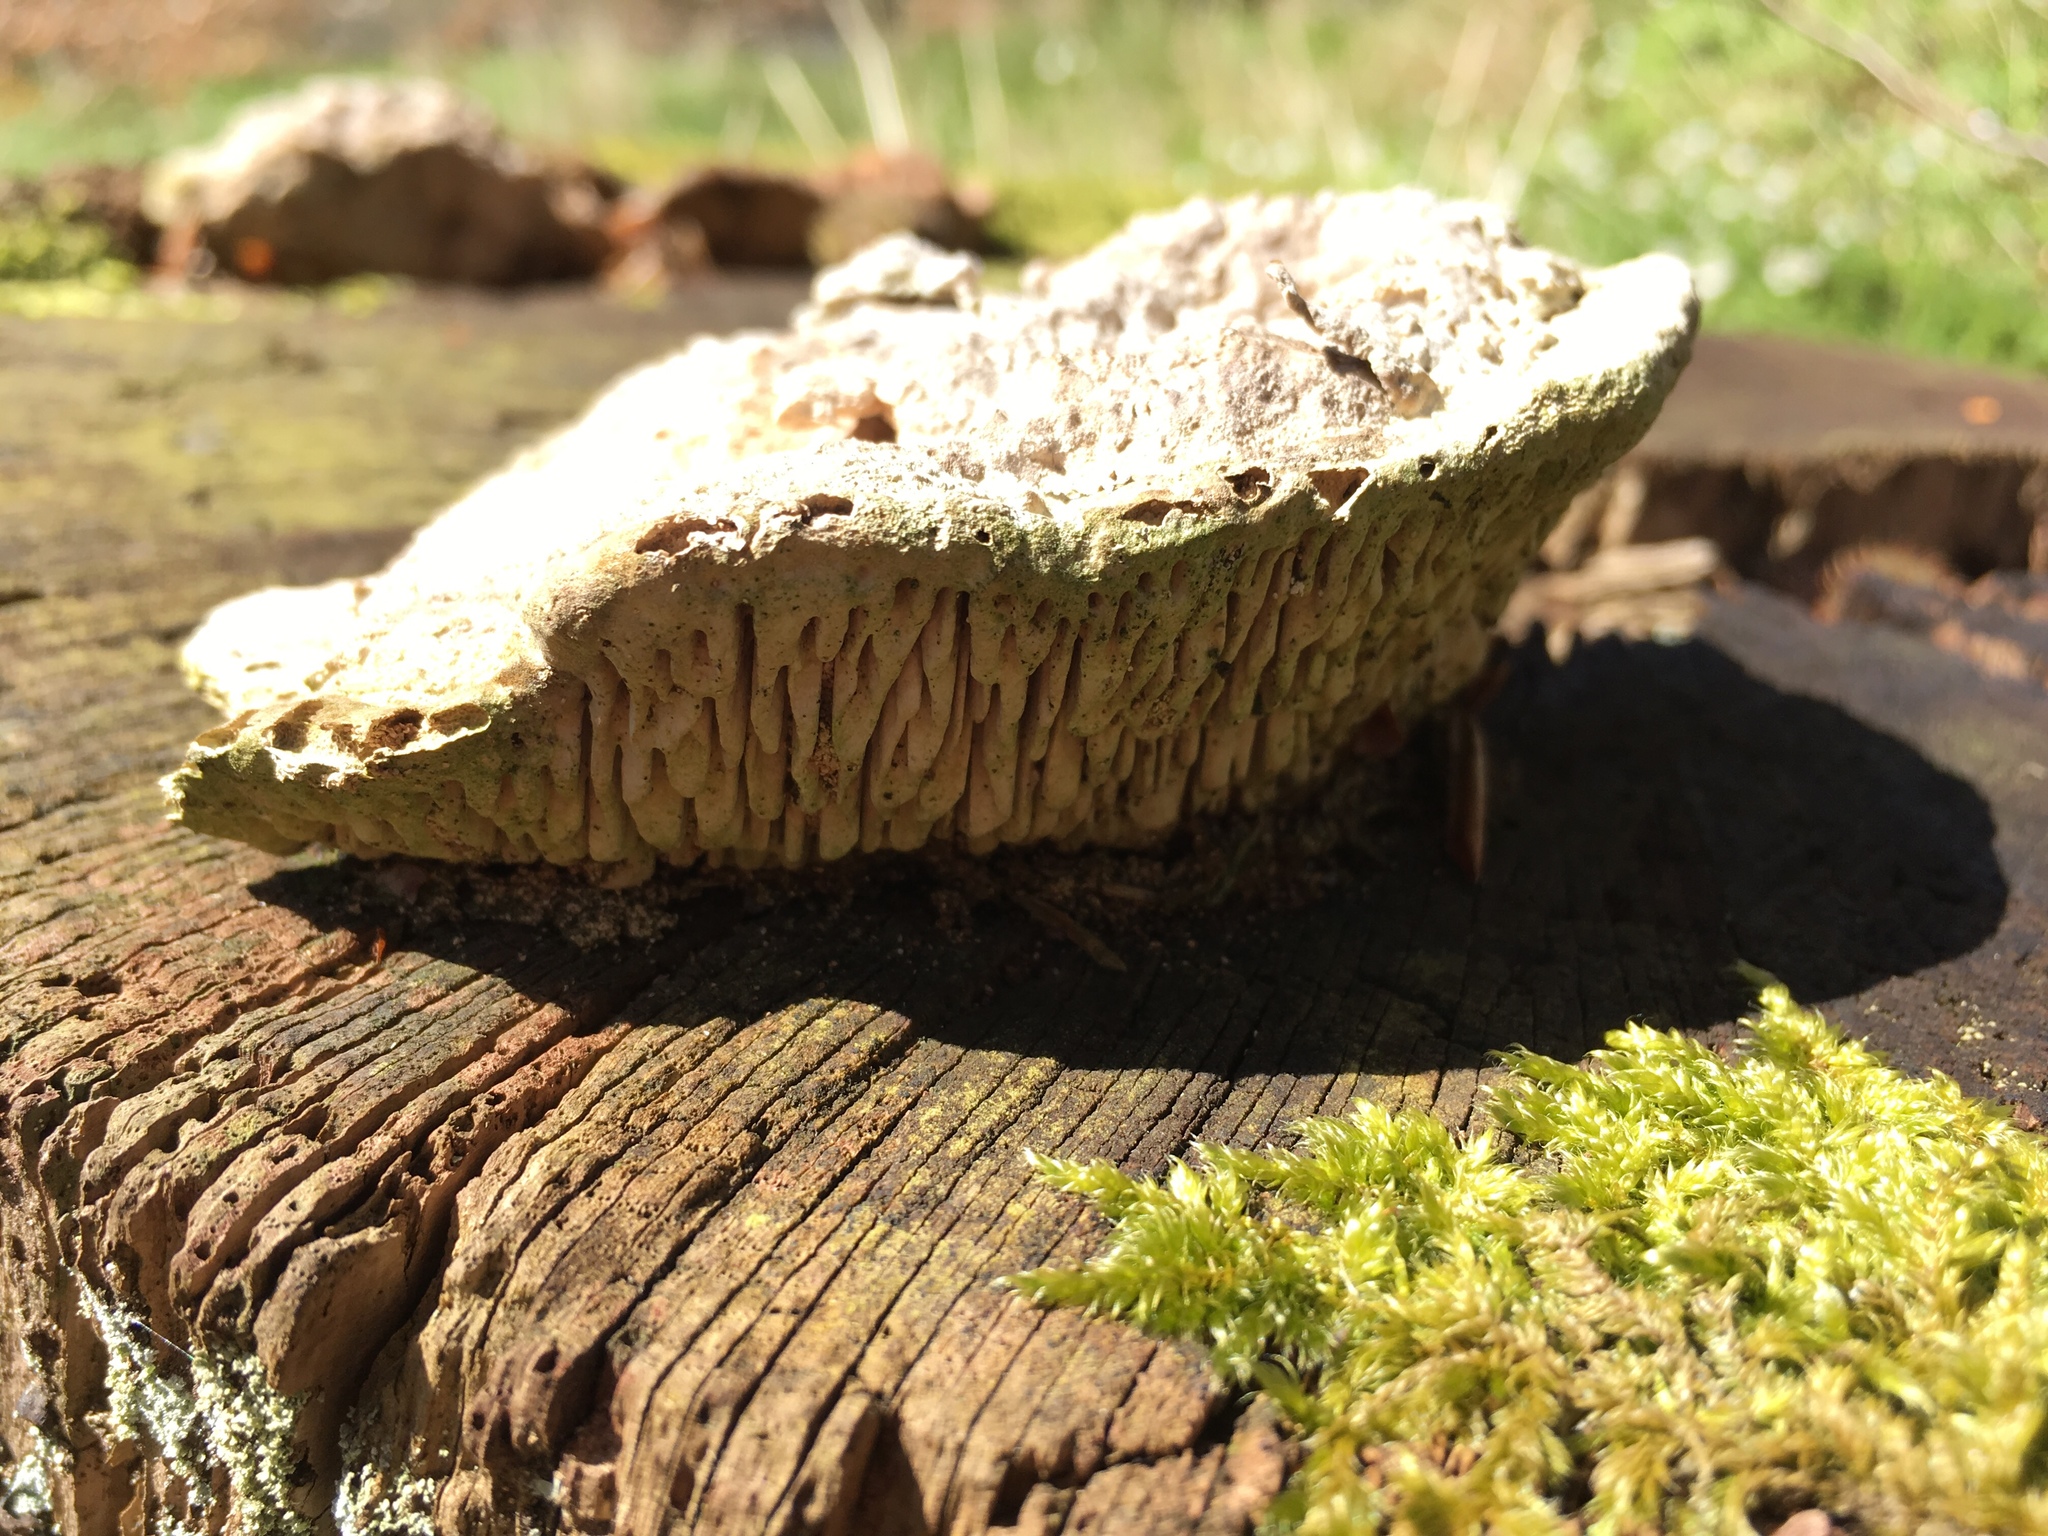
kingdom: Fungi
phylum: Basidiomycota
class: Agaricomycetes
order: Polyporales
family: Fomitopsidaceae
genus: Fomitopsis
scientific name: Fomitopsis
